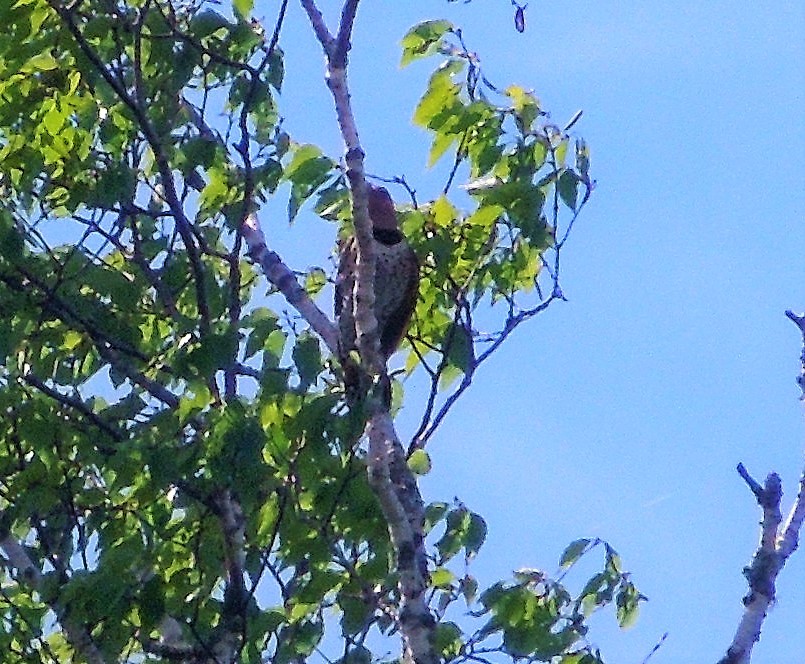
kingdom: Animalia
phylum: Chordata
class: Aves
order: Piciformes
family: Picidae
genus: Colaptes
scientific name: Colaptes auratus
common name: Northern flicker
